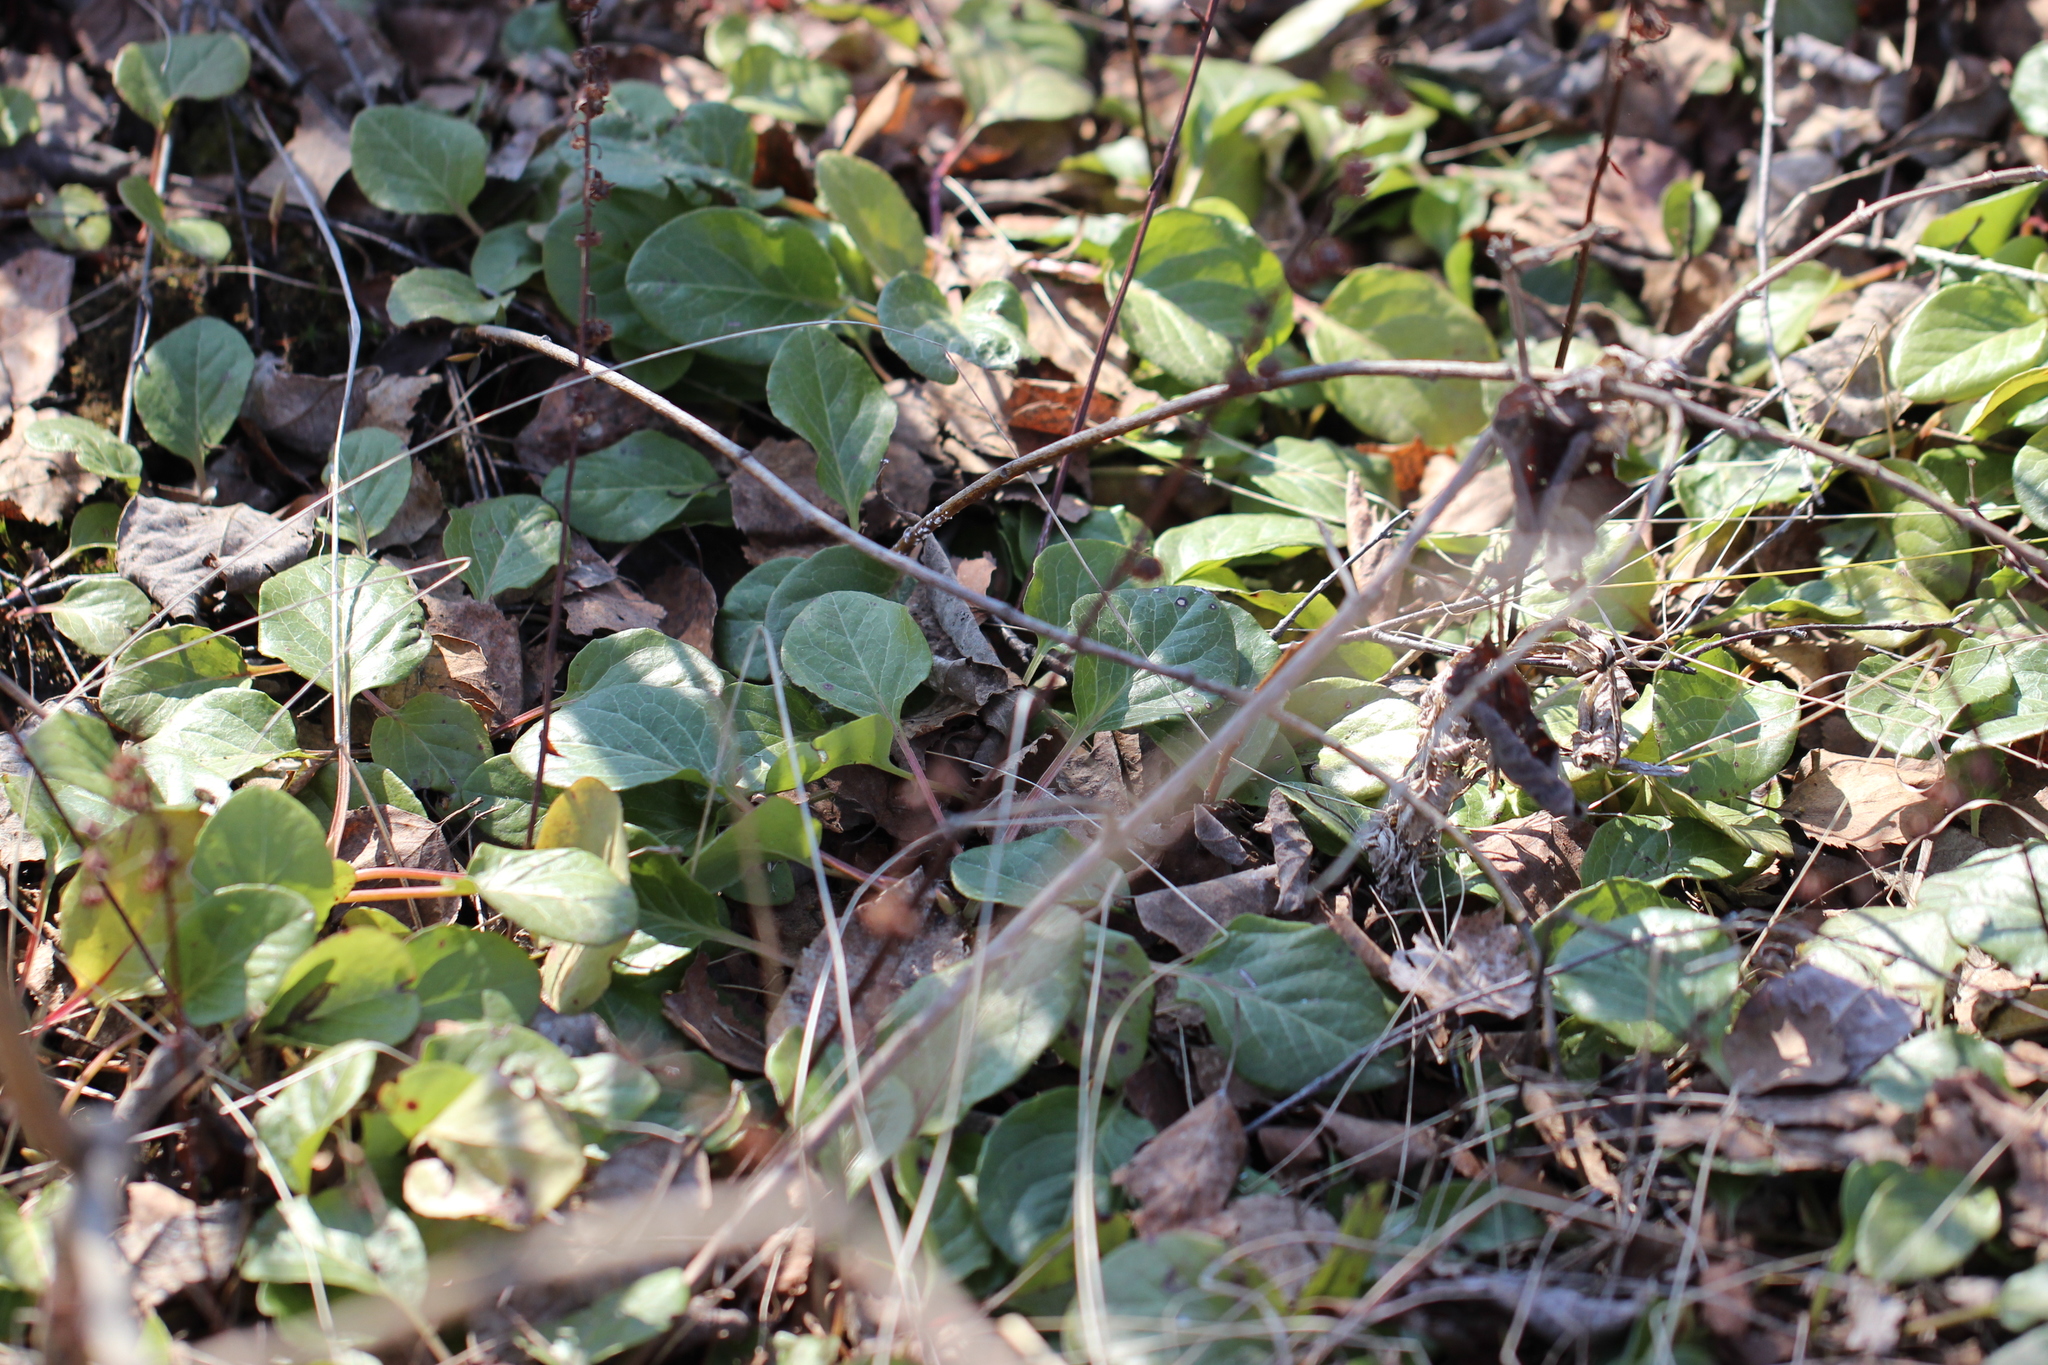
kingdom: Plantae
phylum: Tracheophyta
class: Magnoliopsida
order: Ericales
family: Ericaceae
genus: Pyrola
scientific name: Pyrola rotundifolia
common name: Round-leaved wintergreen
